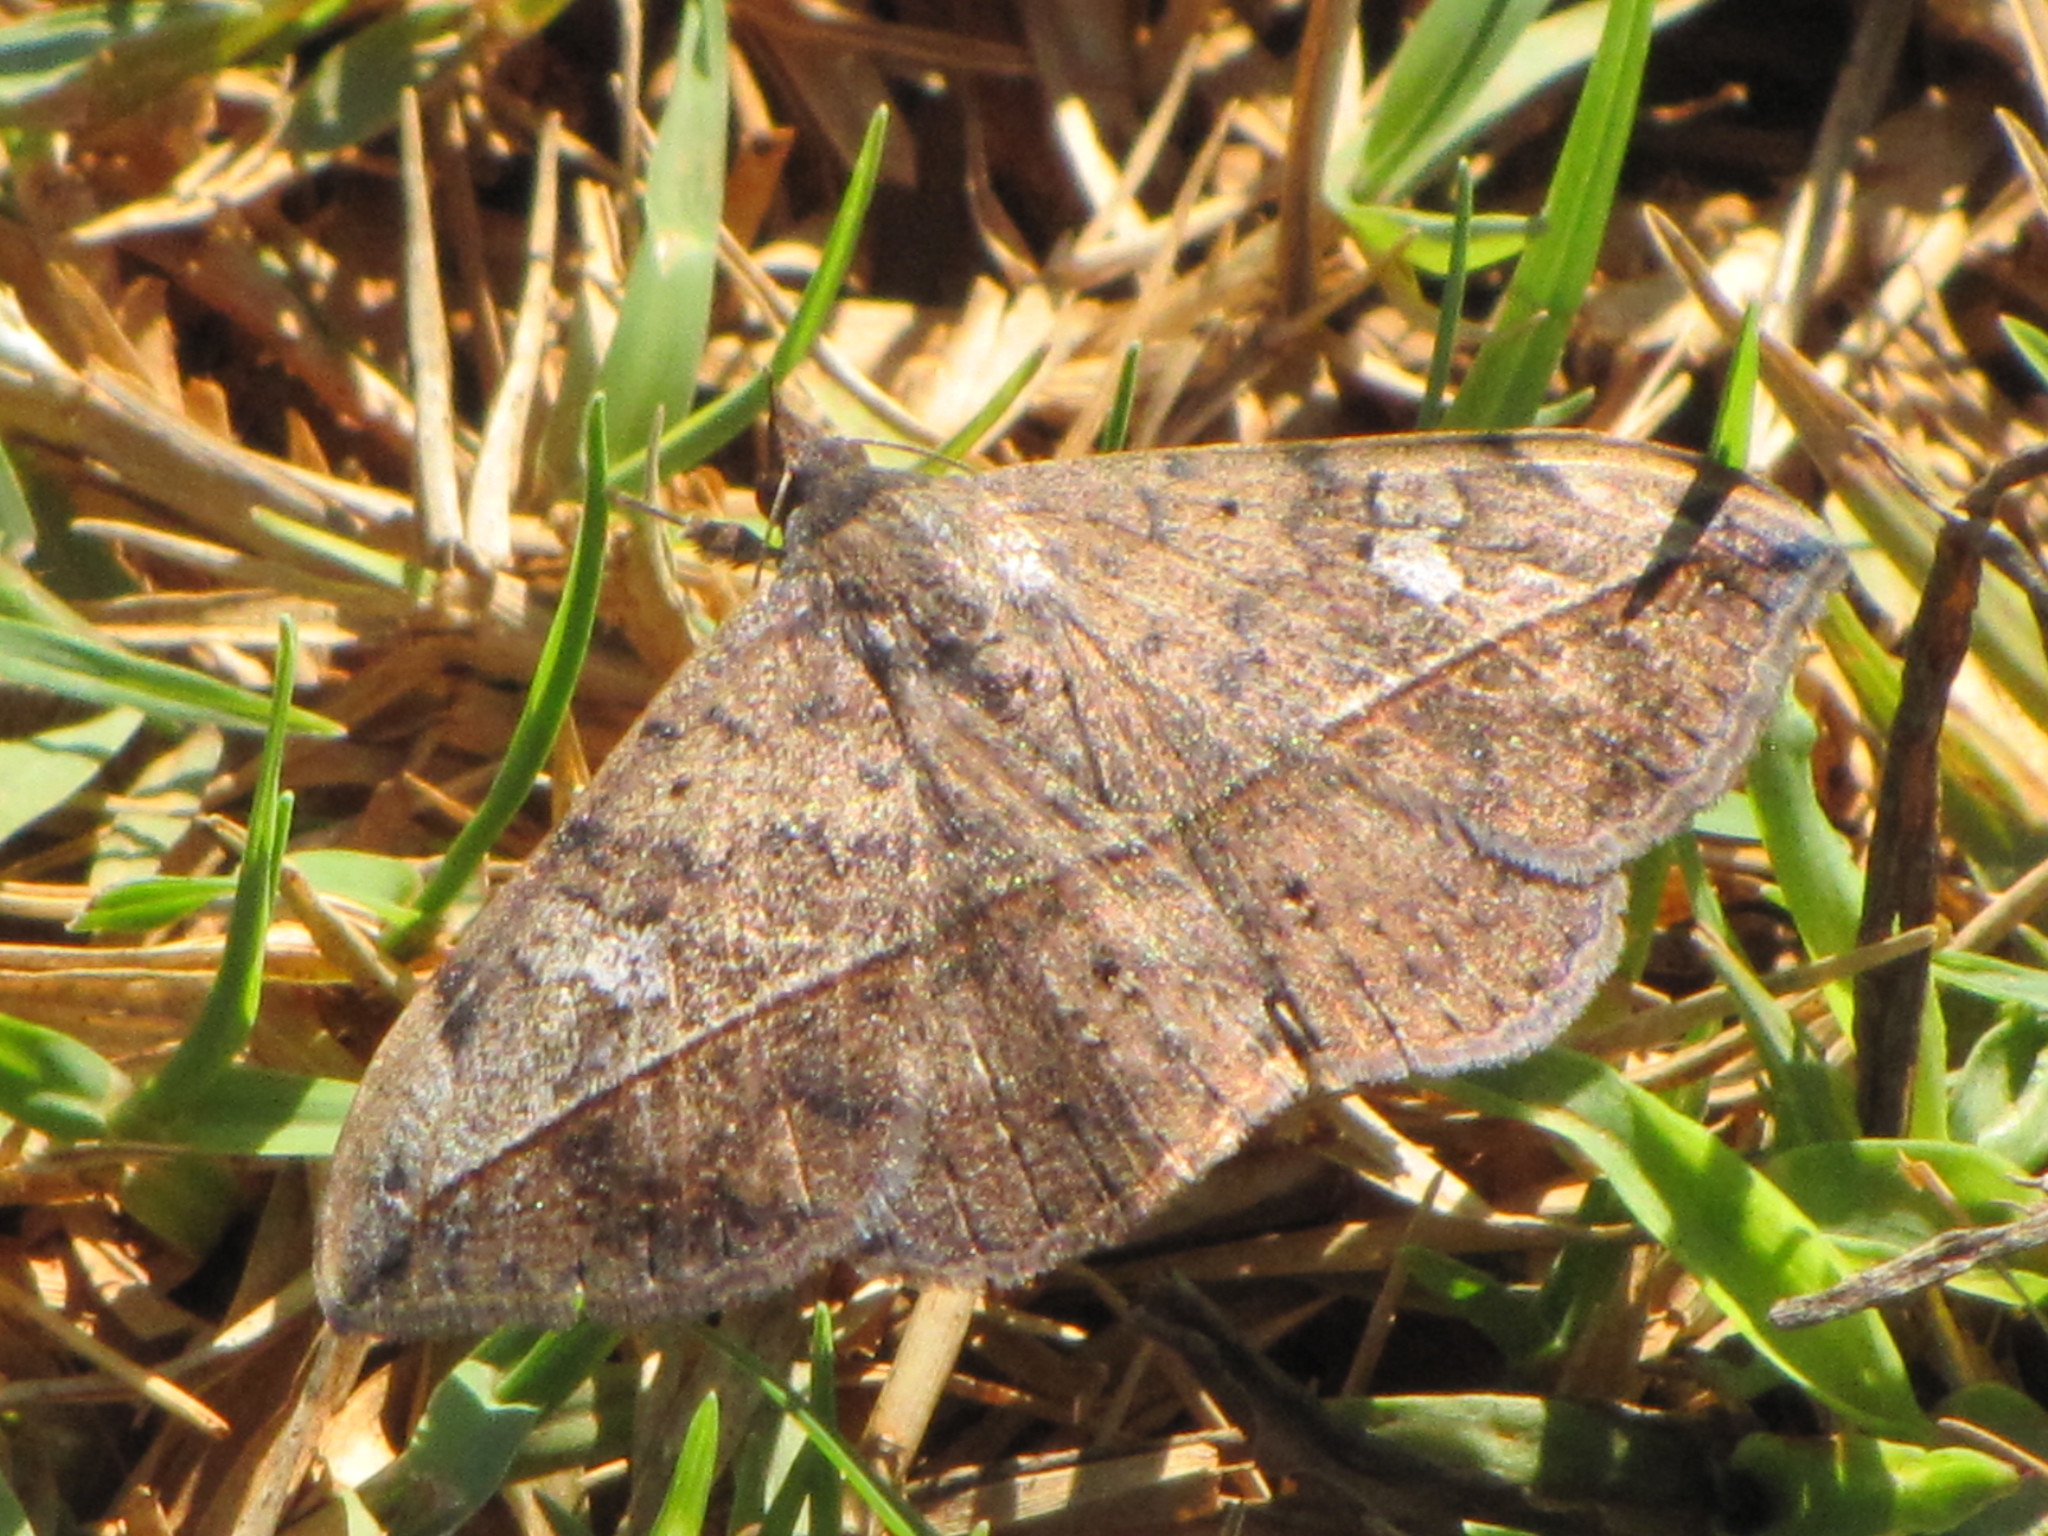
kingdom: Animalia
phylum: Arthropoda
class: Insecta
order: Lepidoptera
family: Erebidae
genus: Anticarsia
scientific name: Anticarsia gemmatalis
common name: Cutworm moth
